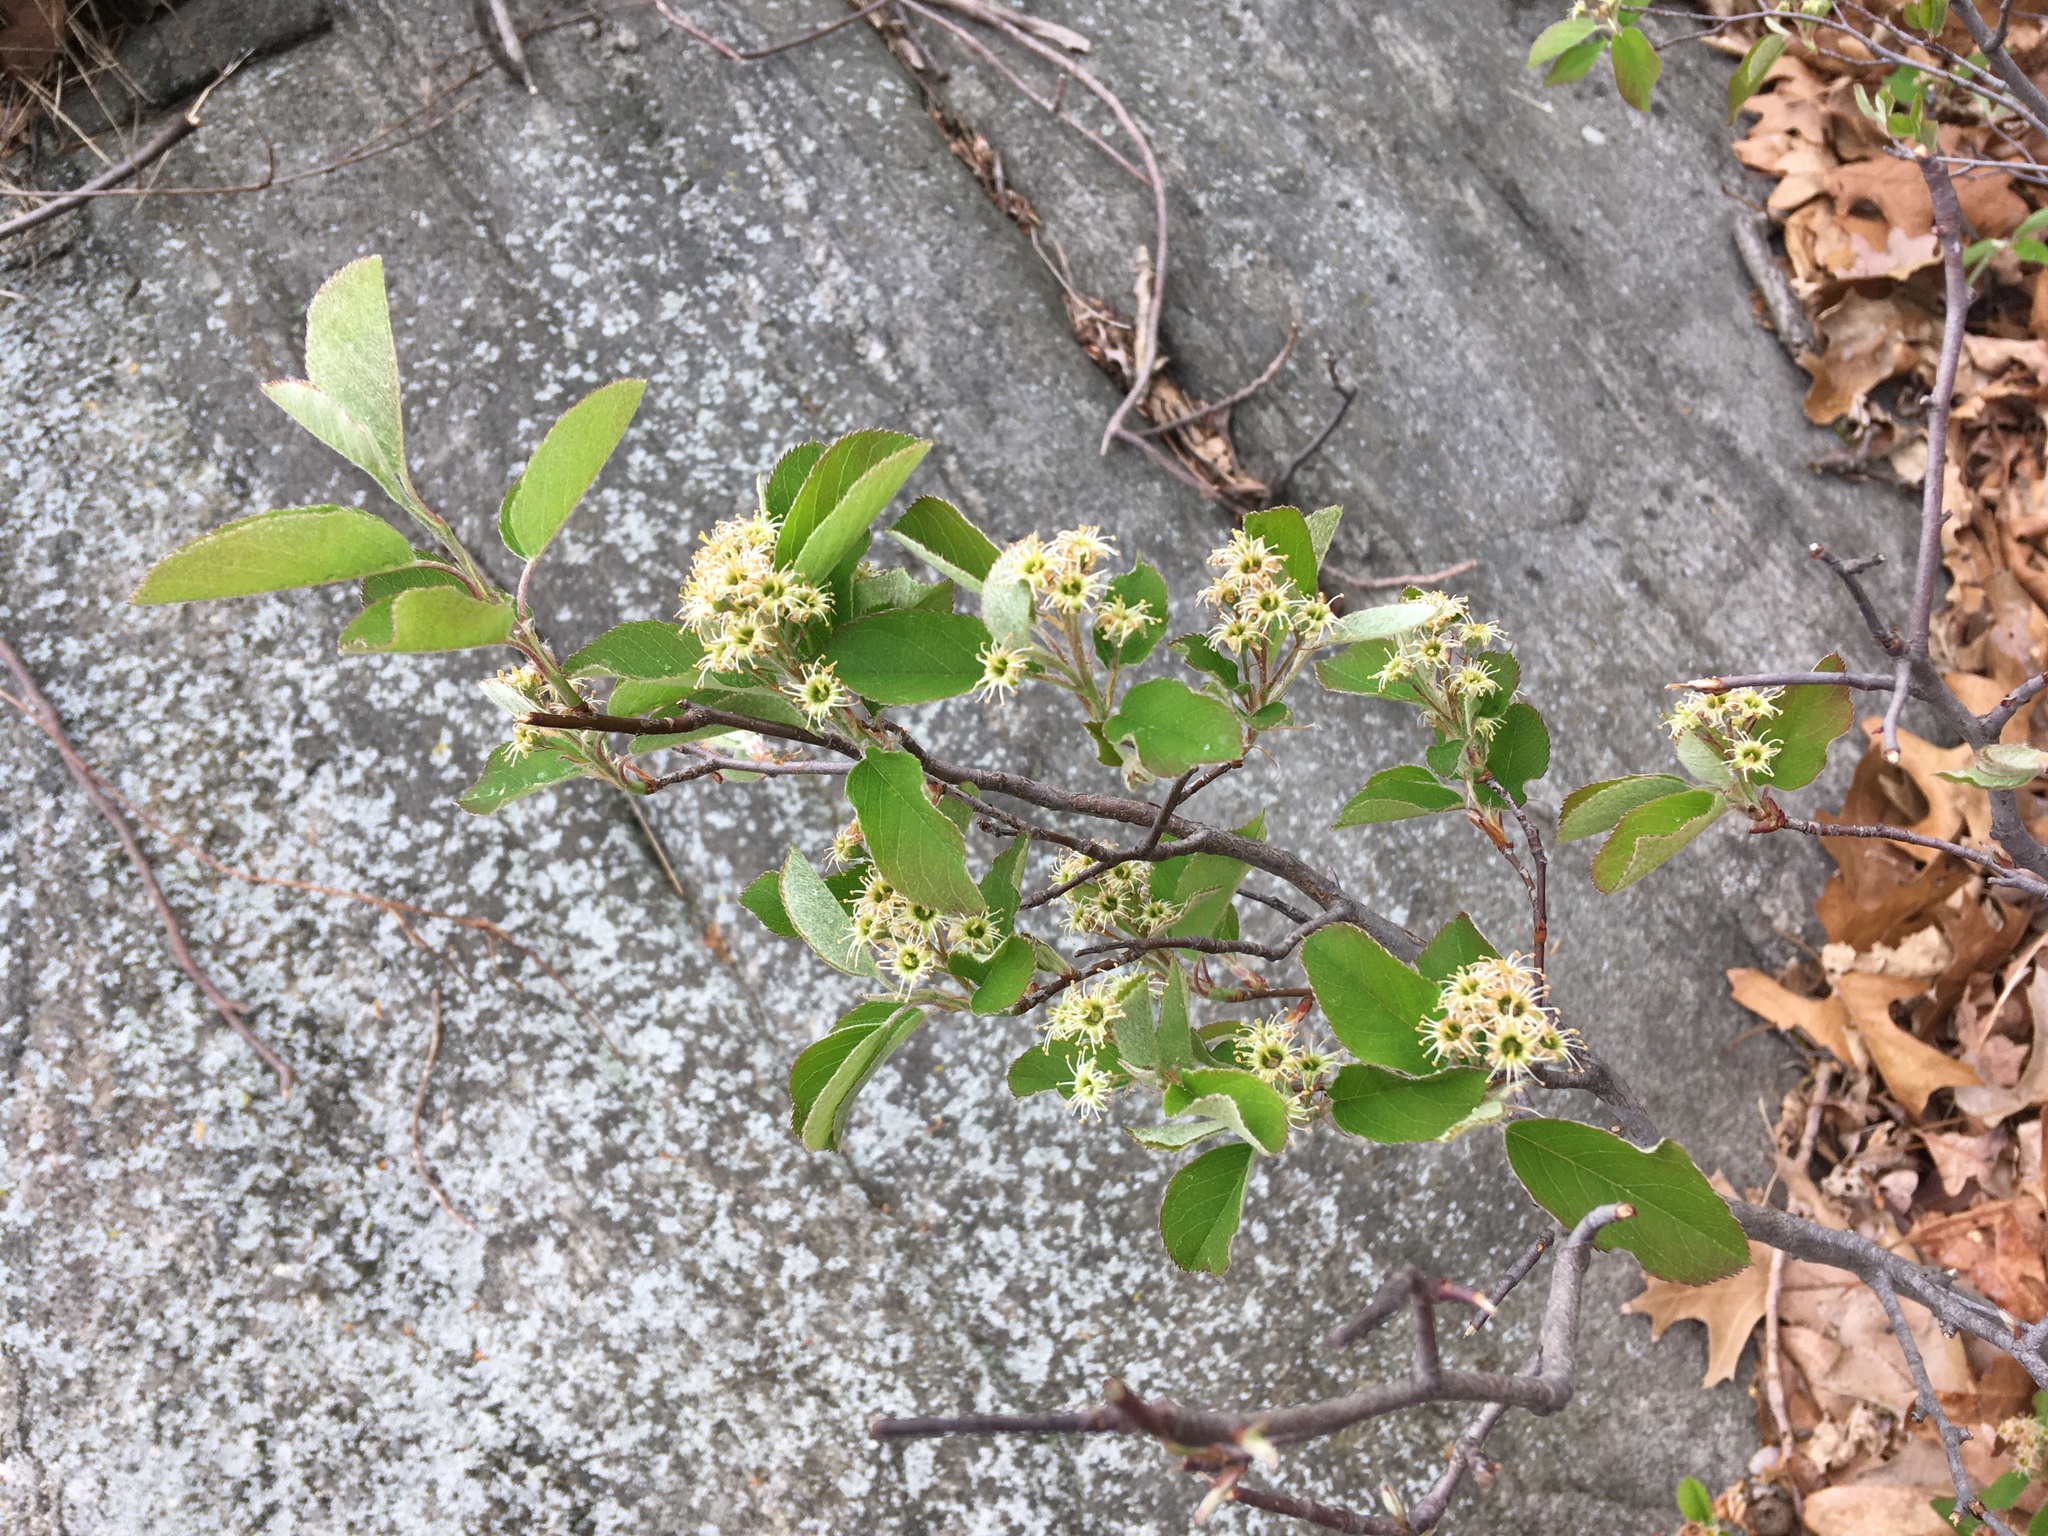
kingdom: Plantae
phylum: Tracheophyta
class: Magnoliopsida
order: Rosales
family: Rosaceae
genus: Amelanchier
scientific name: Amelanchier nantucketensis
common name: Nantucket shadbush
